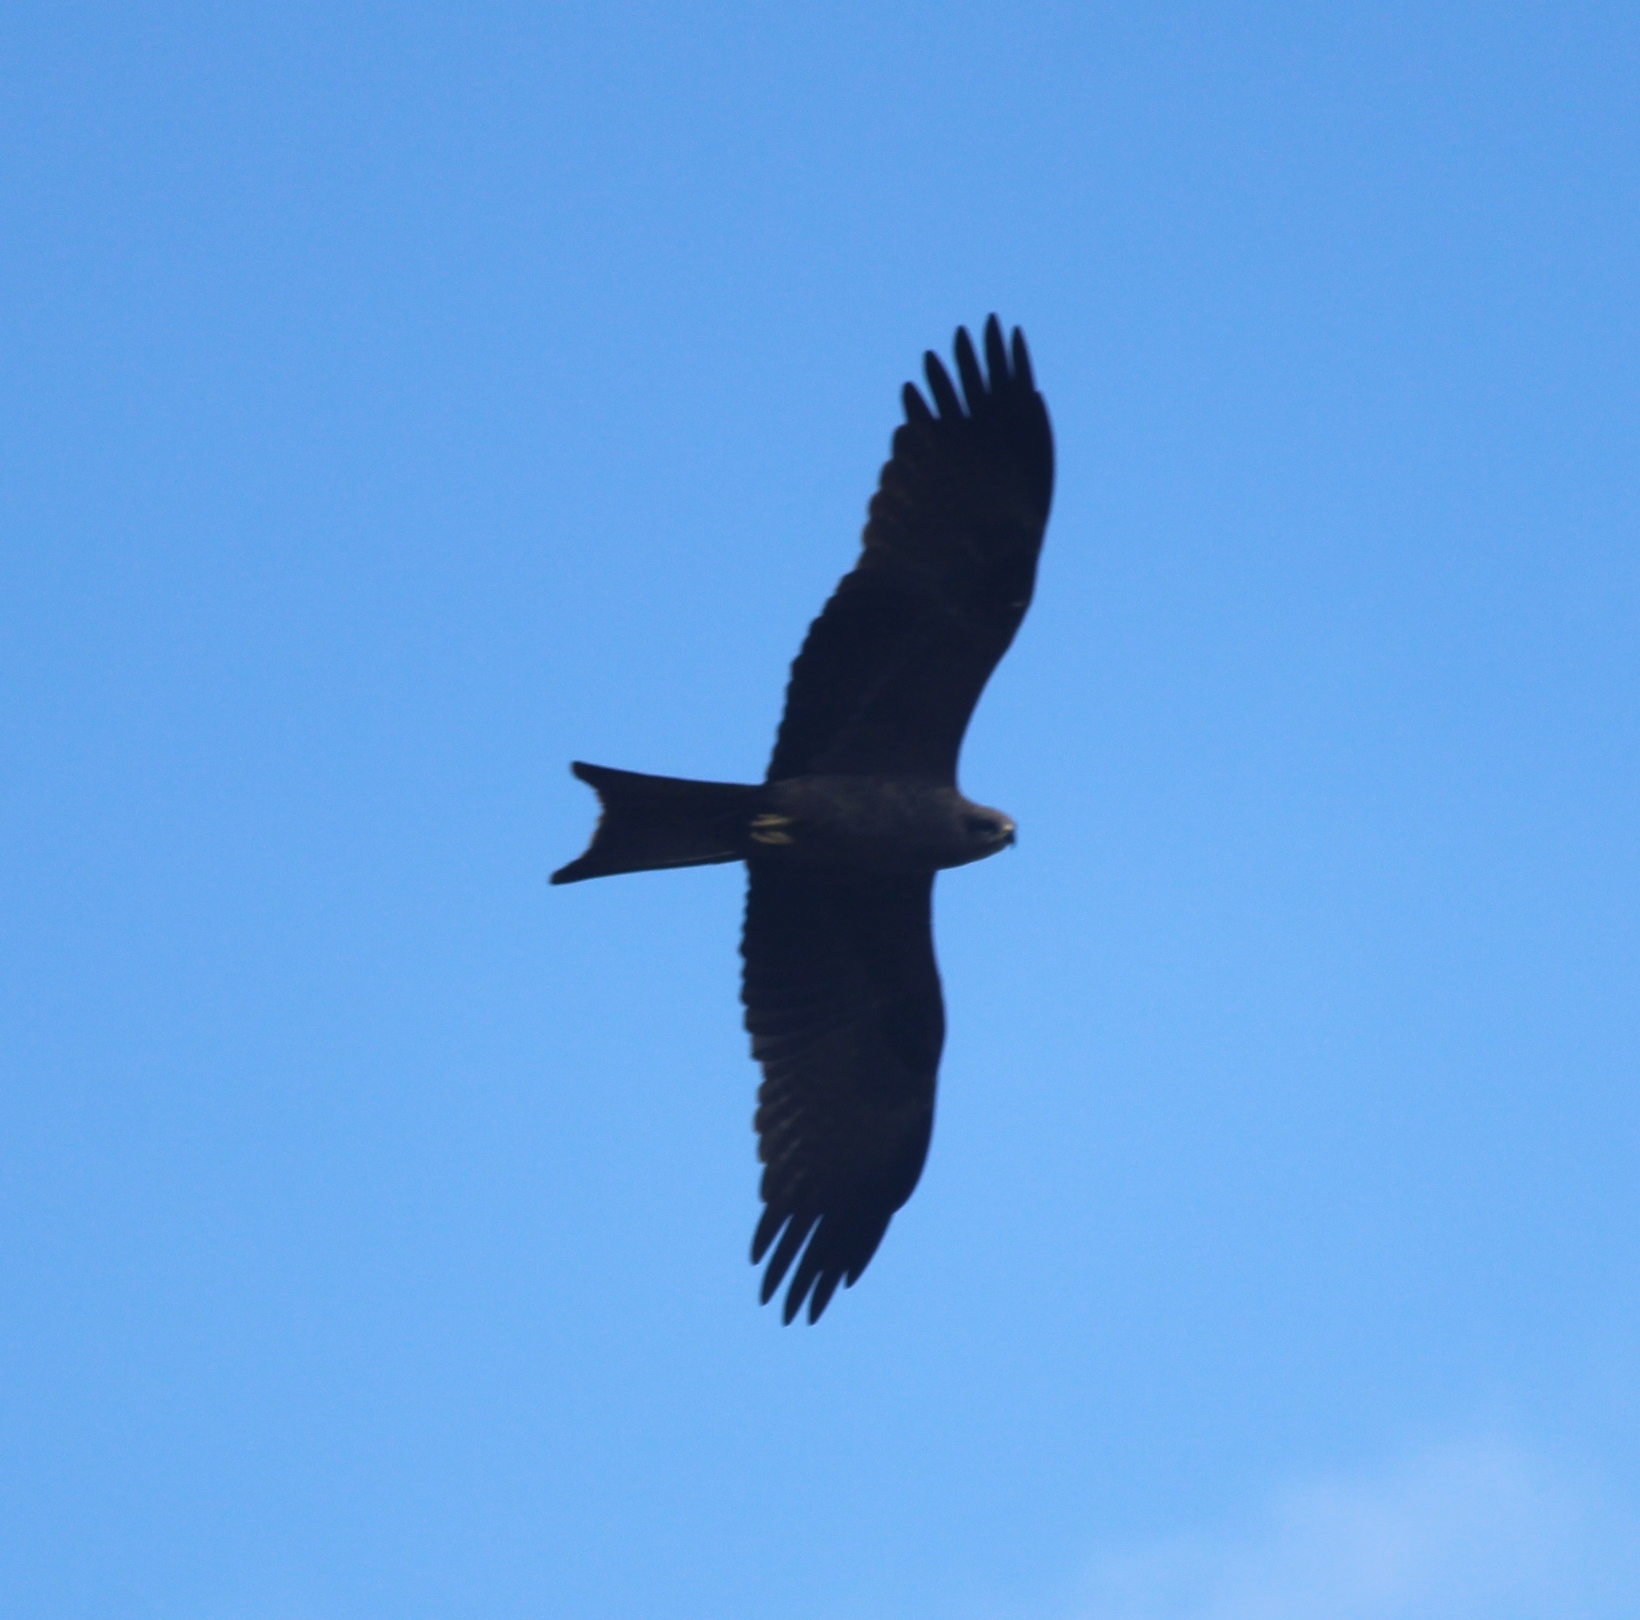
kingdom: Animalia
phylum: Chordata
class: Aves
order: Accipitriformes
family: Accipitridae
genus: Milvus
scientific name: Milvus migrans
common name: Black kite
